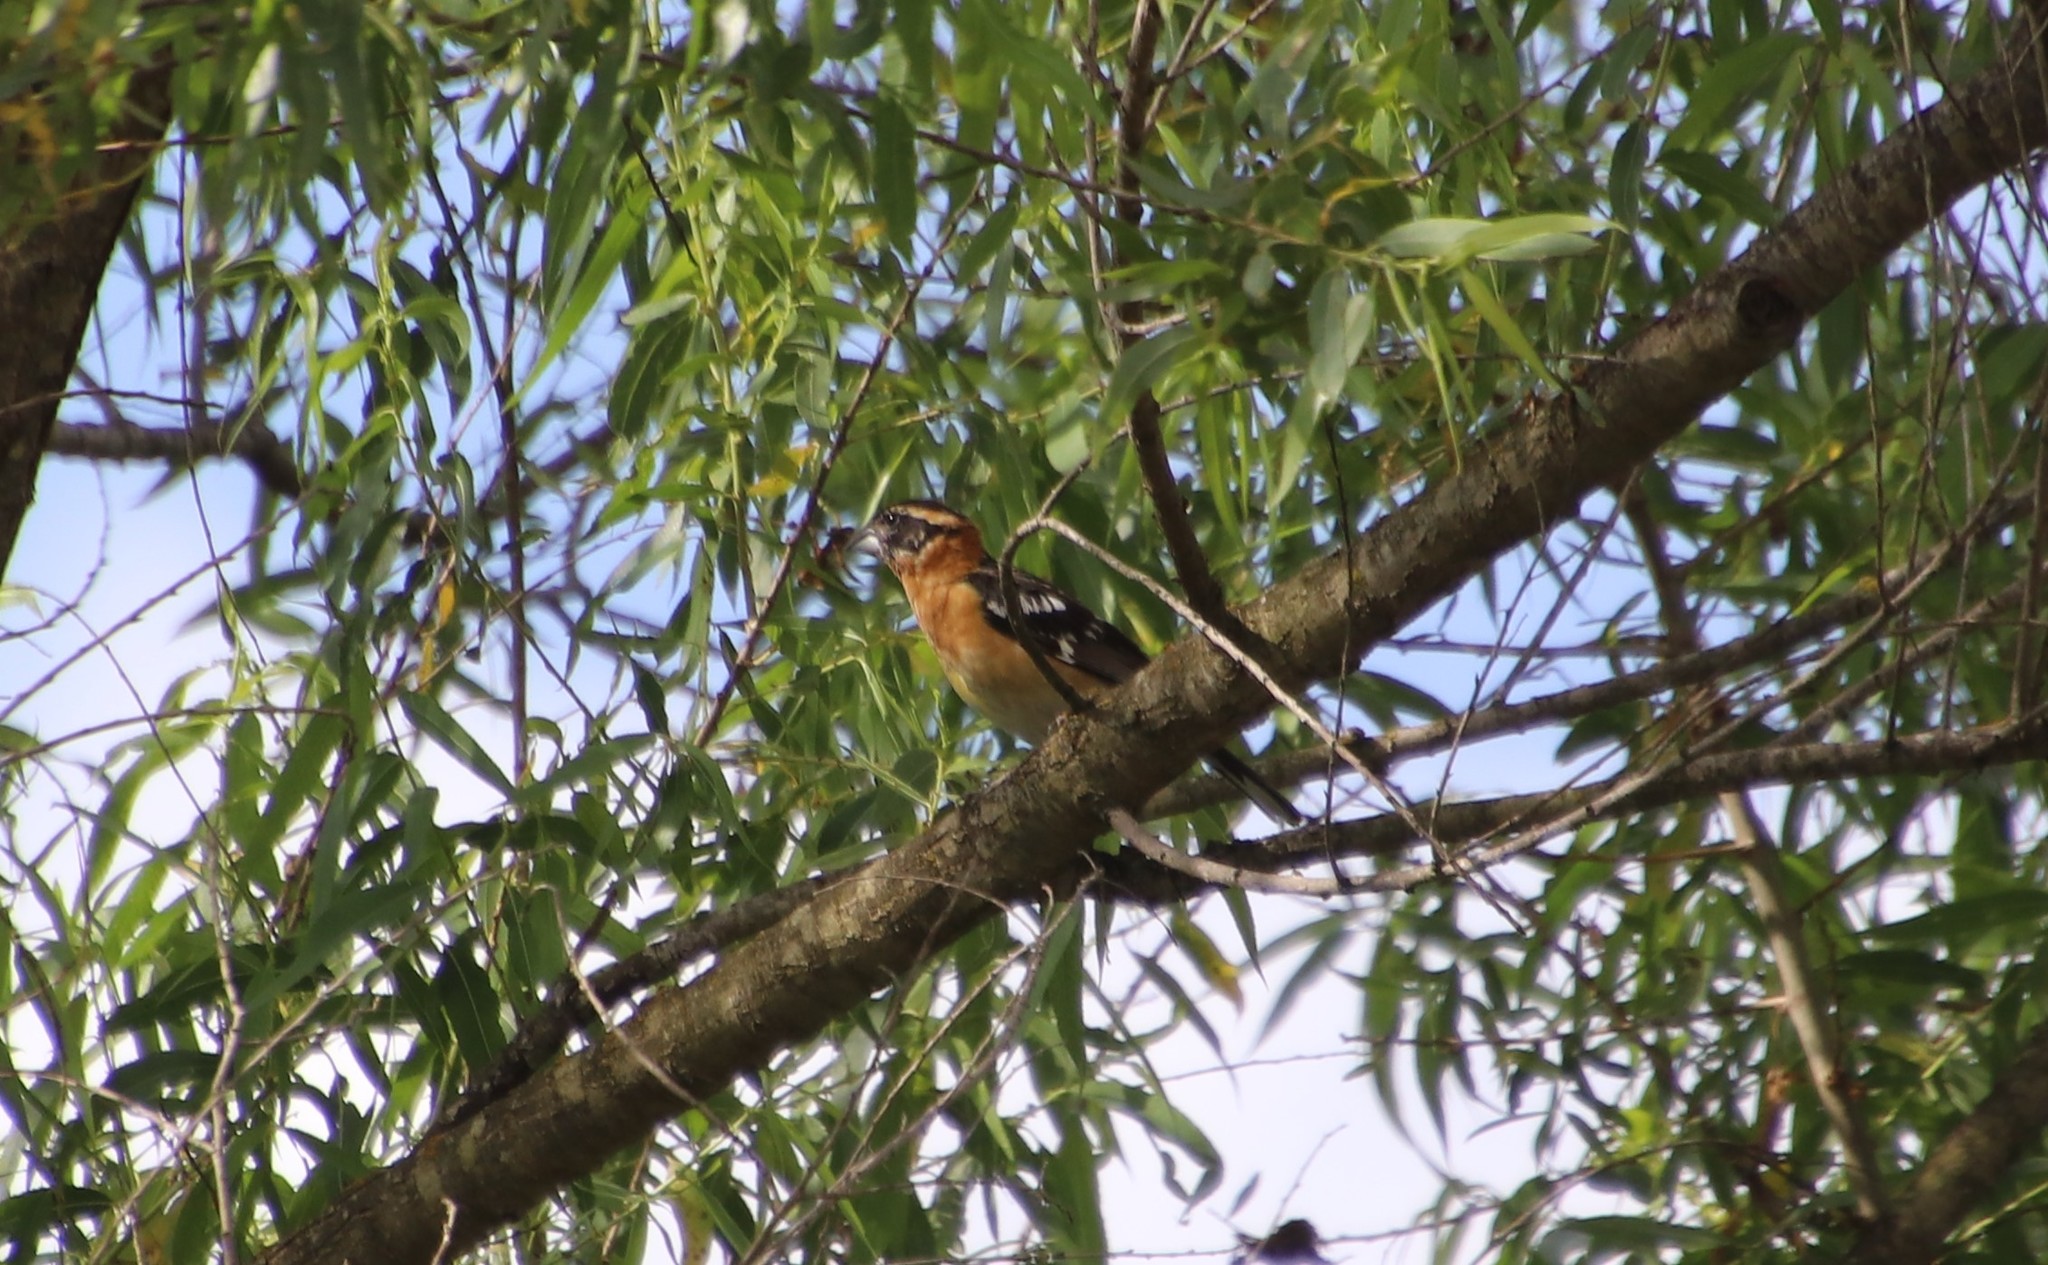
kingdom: Animalia
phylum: Chordata
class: Aves
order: Passeriformes
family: Cardinalidae
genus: Pheucticus
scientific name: Pheucticus melanocephalus
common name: Black-headed grosbeak
